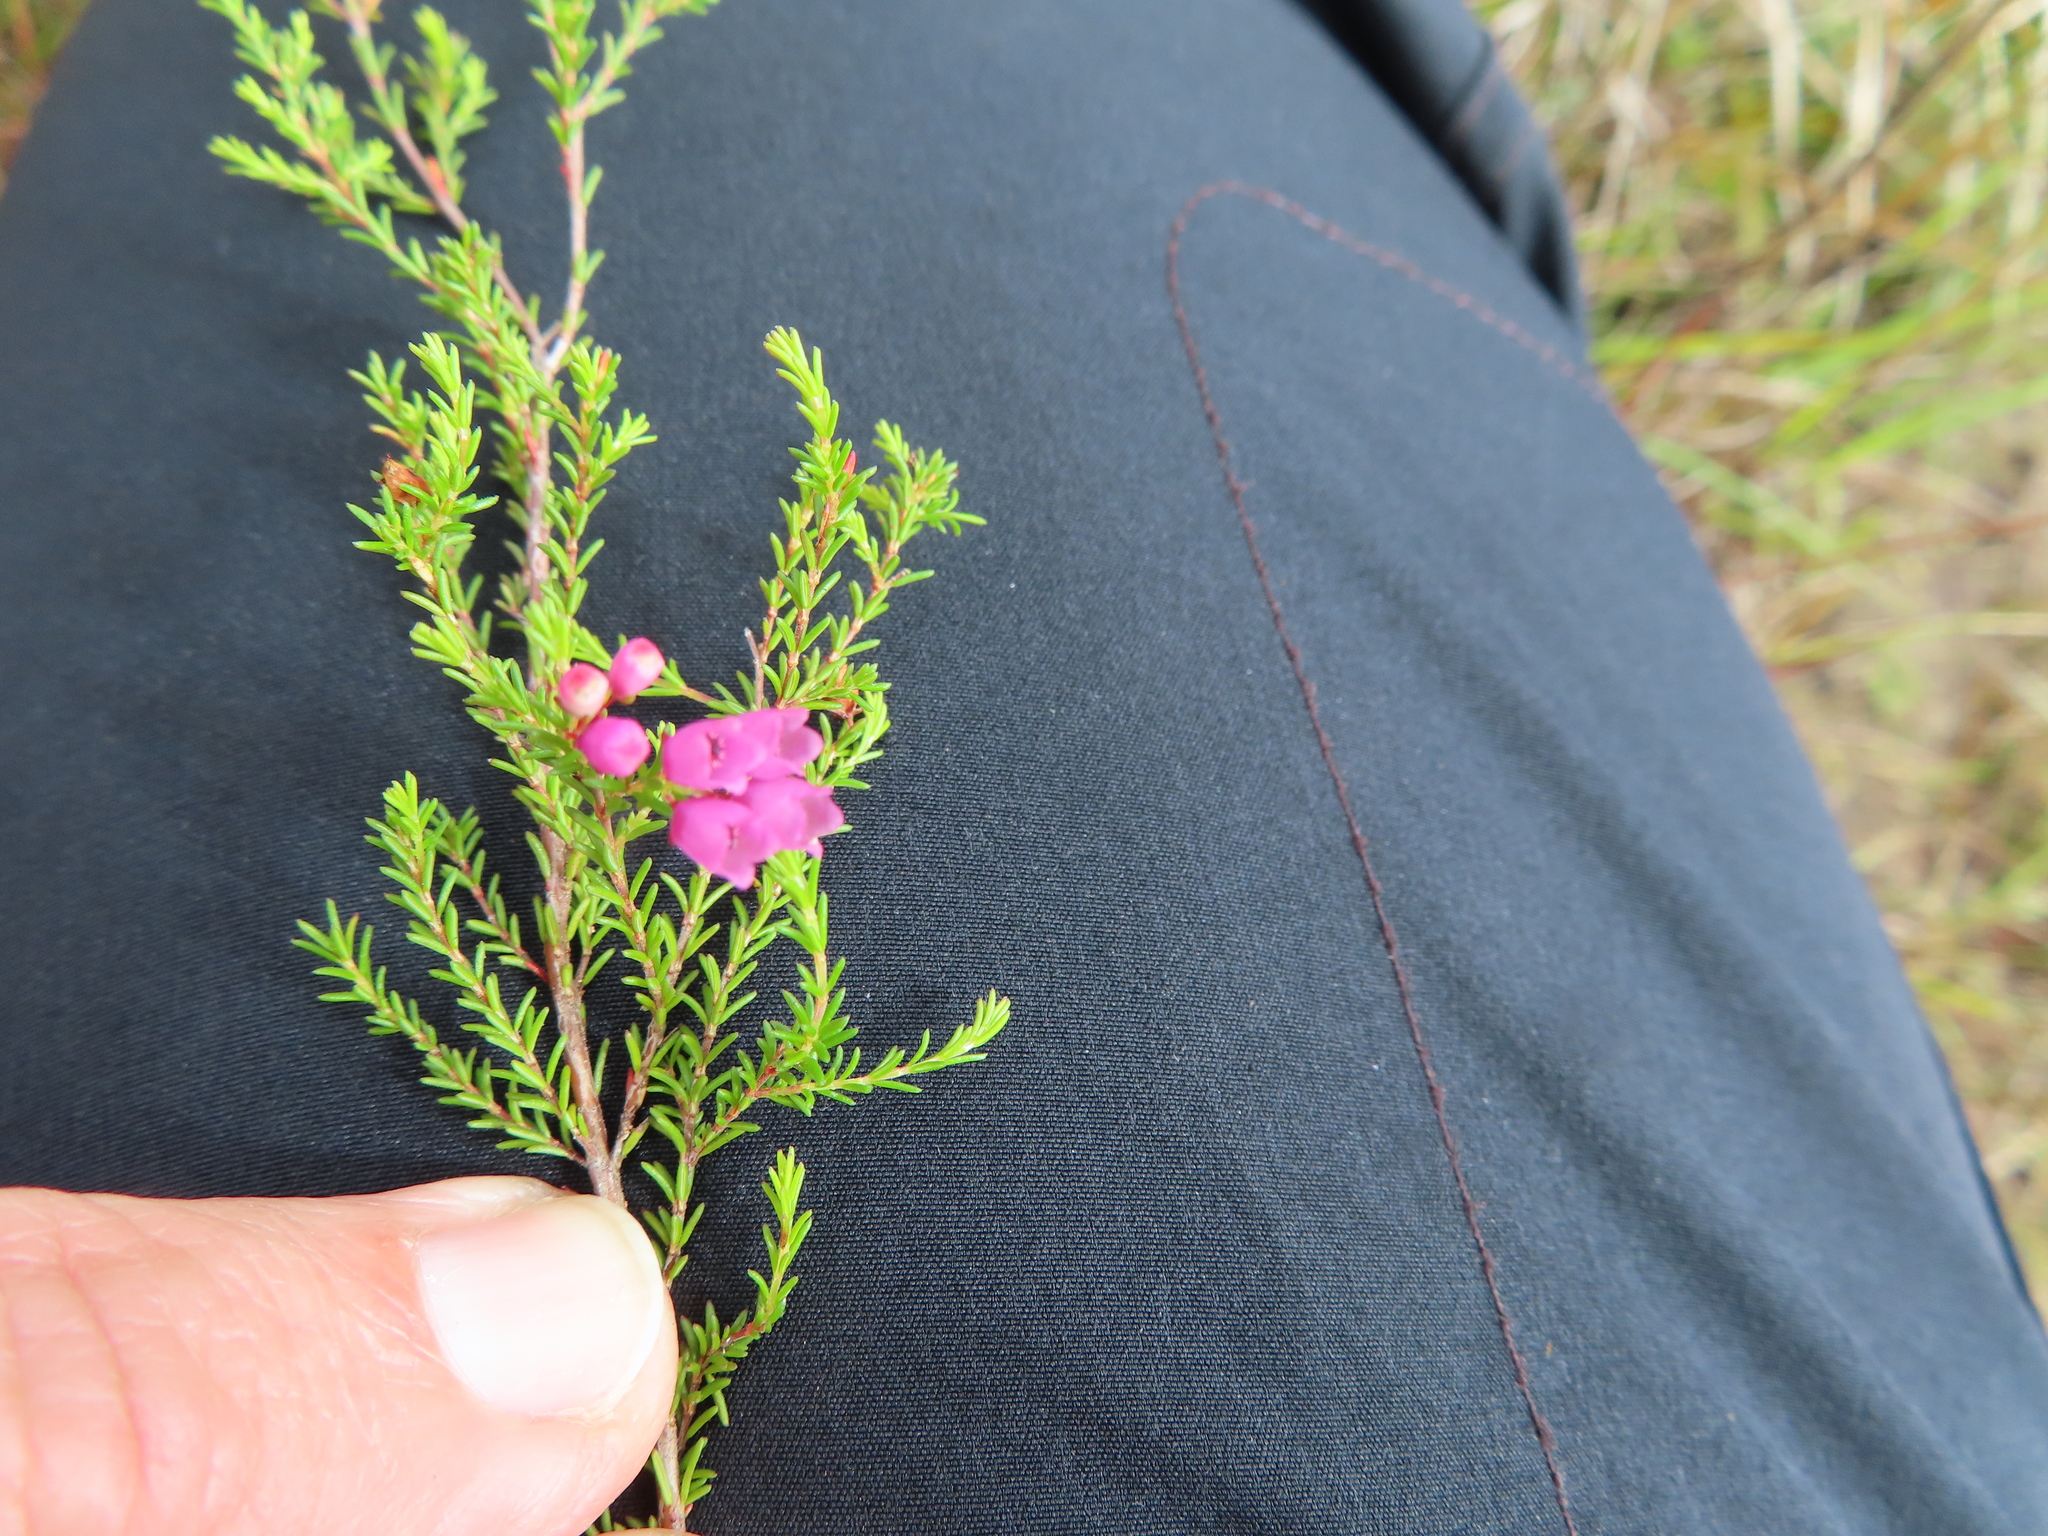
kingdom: Plantae
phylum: Tracheophyta
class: Magnoliopsida
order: Ericales
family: Ericaceae
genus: Erica
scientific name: Erica quadrangularis
